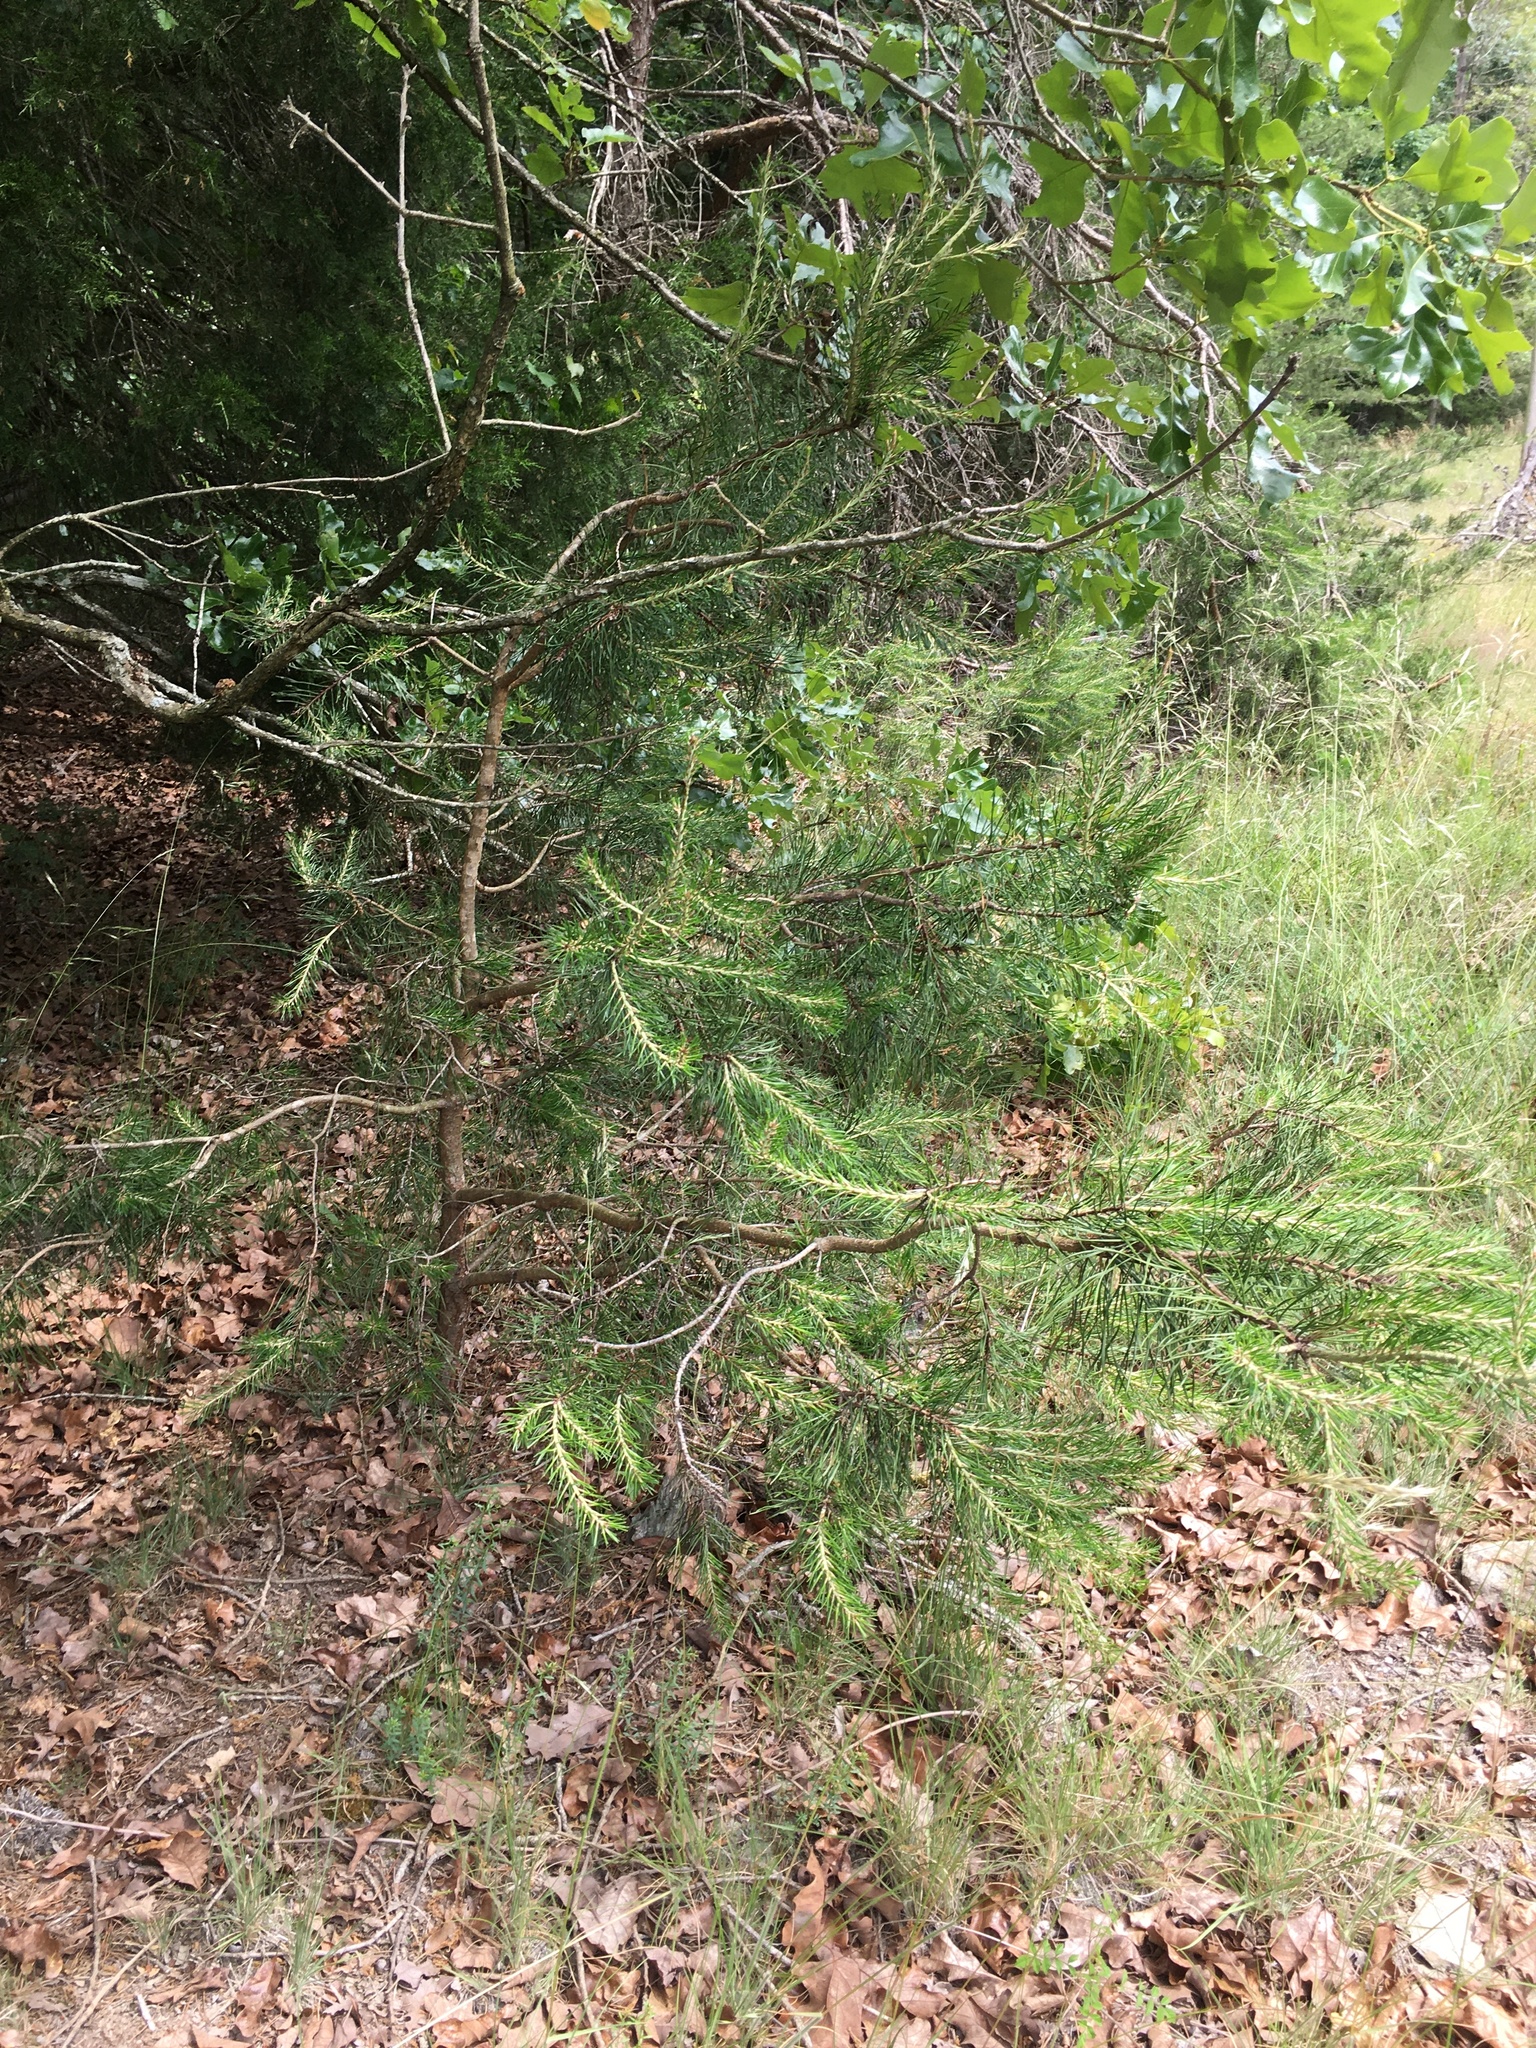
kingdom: Plantae
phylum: Tracheophyta
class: Pinopsida
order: Pinales
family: Pinaceae
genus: Pinus
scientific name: Pinus virginiana
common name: Scrub pine
